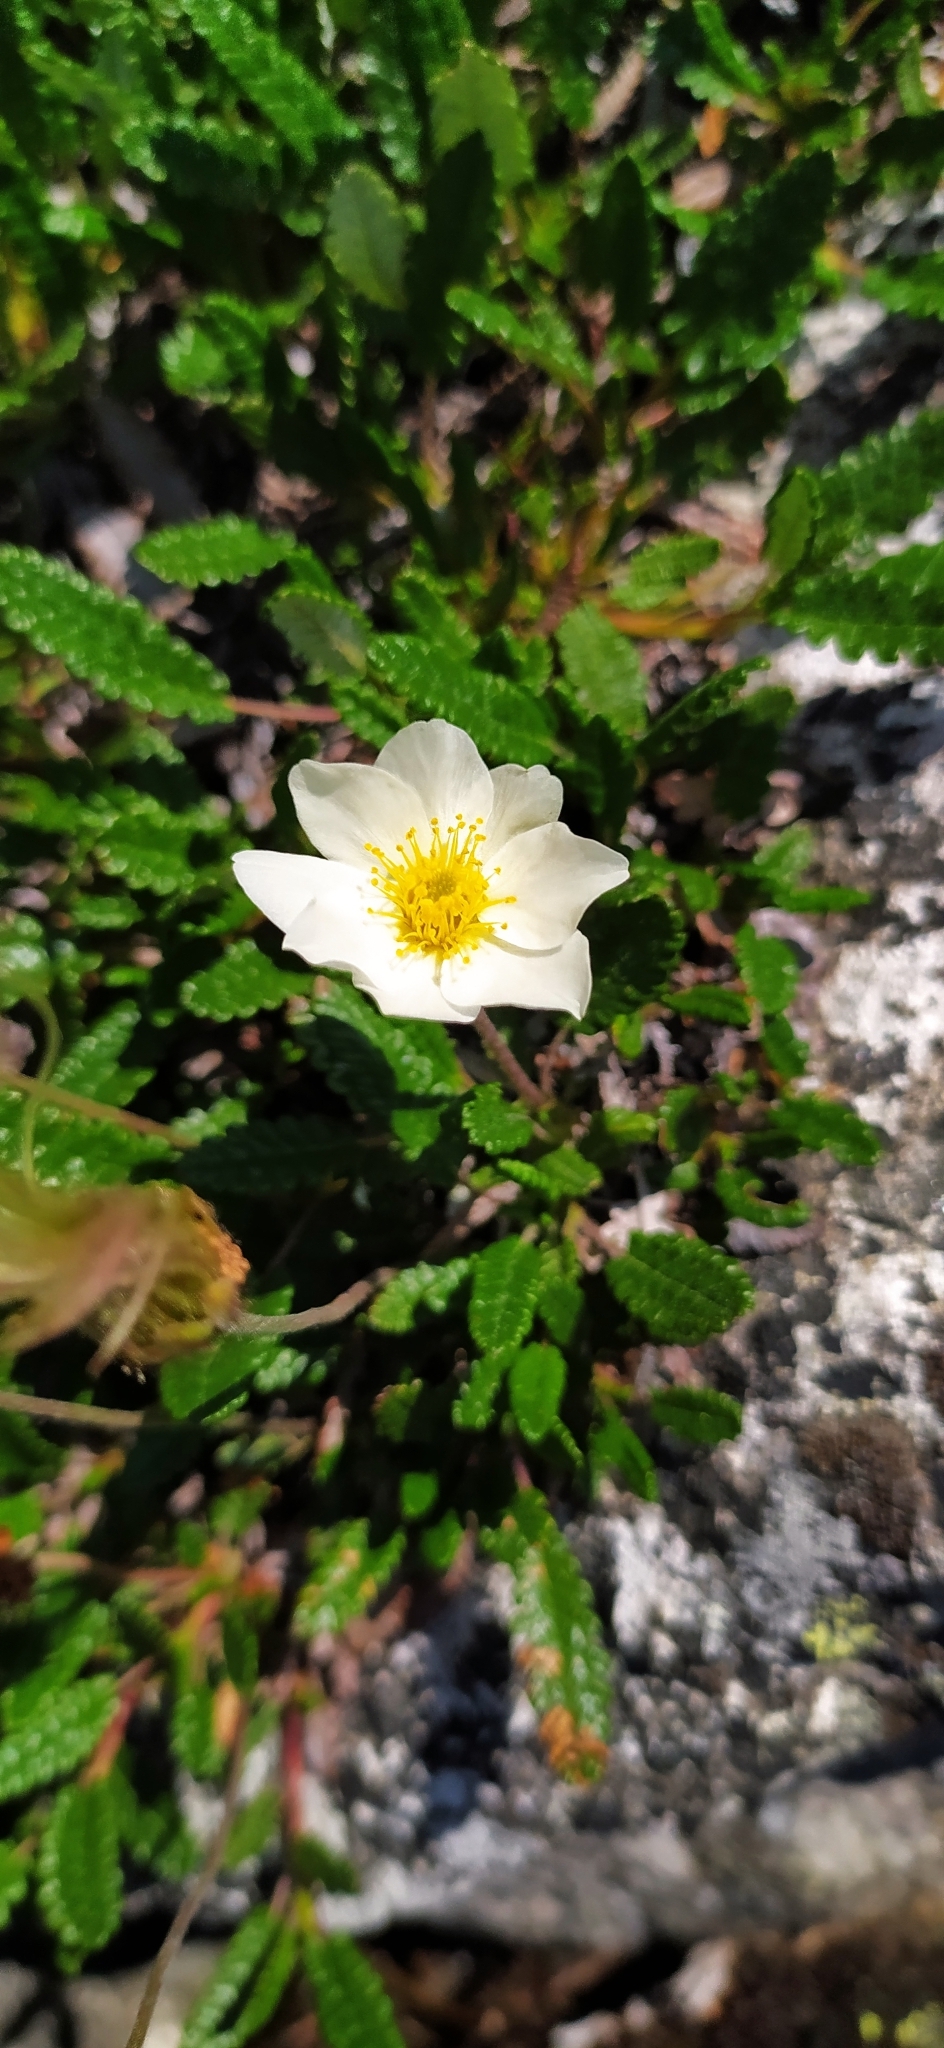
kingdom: Plantae
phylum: Tracheophyta
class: Magnoliopsida
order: Rosales
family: Rosaceae
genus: Dryas
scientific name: Dryas octopetala
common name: Eight-petal mountain-avens
